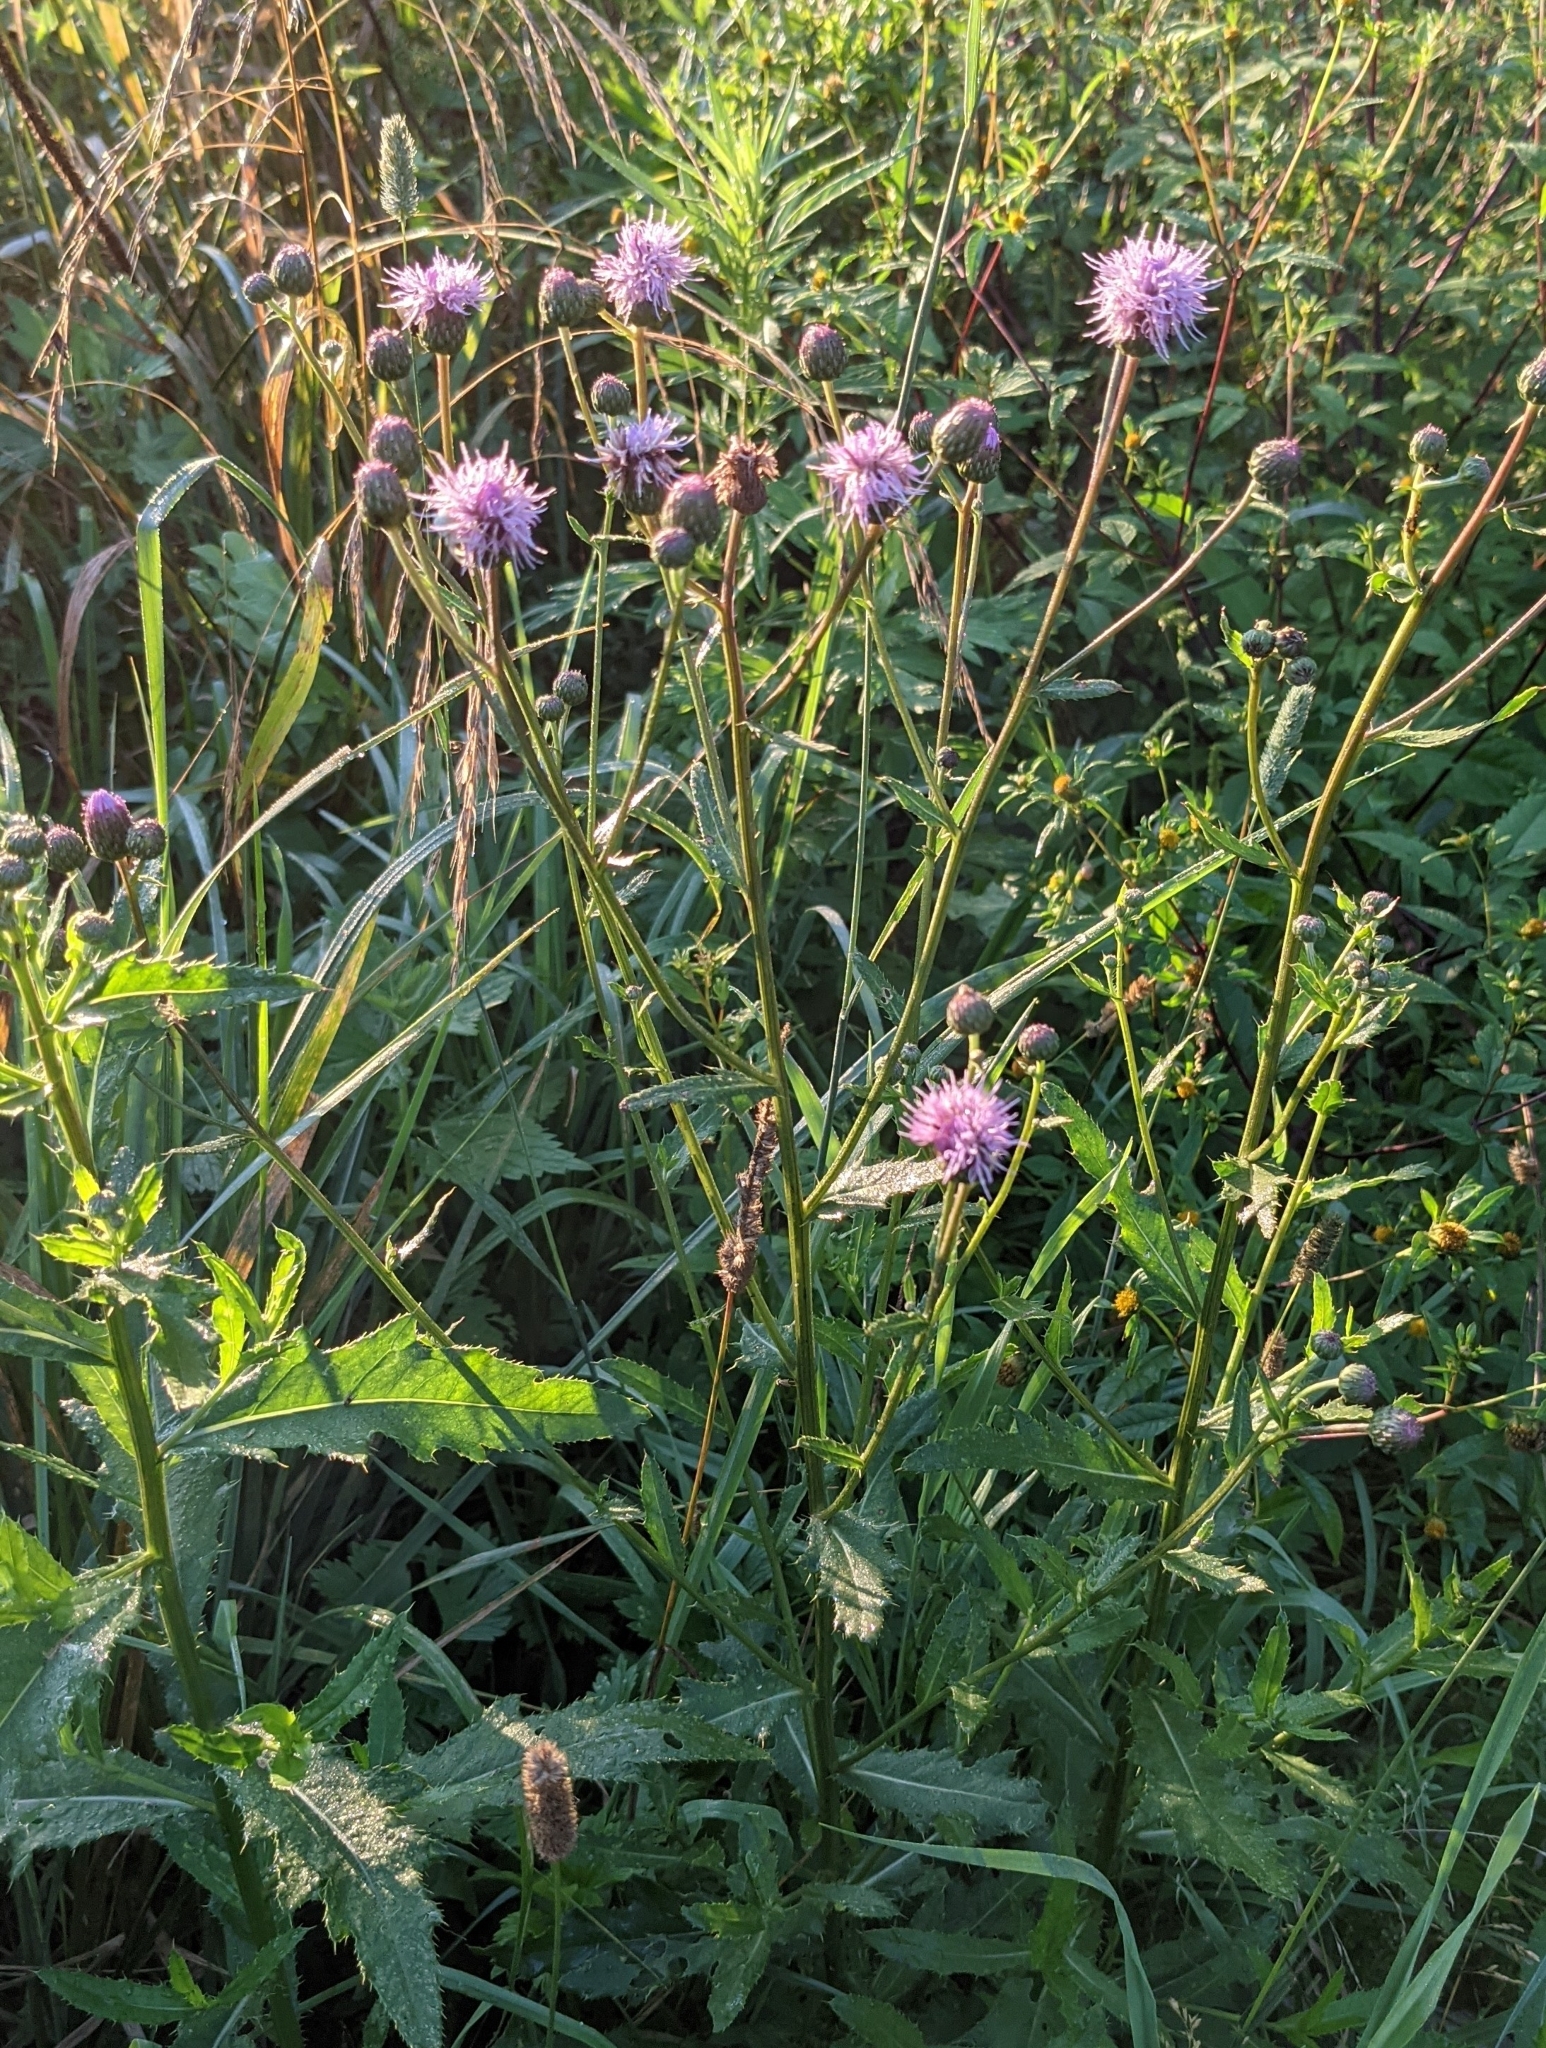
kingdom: Plantae
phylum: Tracheophyta
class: Magnoliopsida
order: Asterales
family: Asteraceae
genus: Cirsium
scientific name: Cirsium arvense
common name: Creeping thistle
